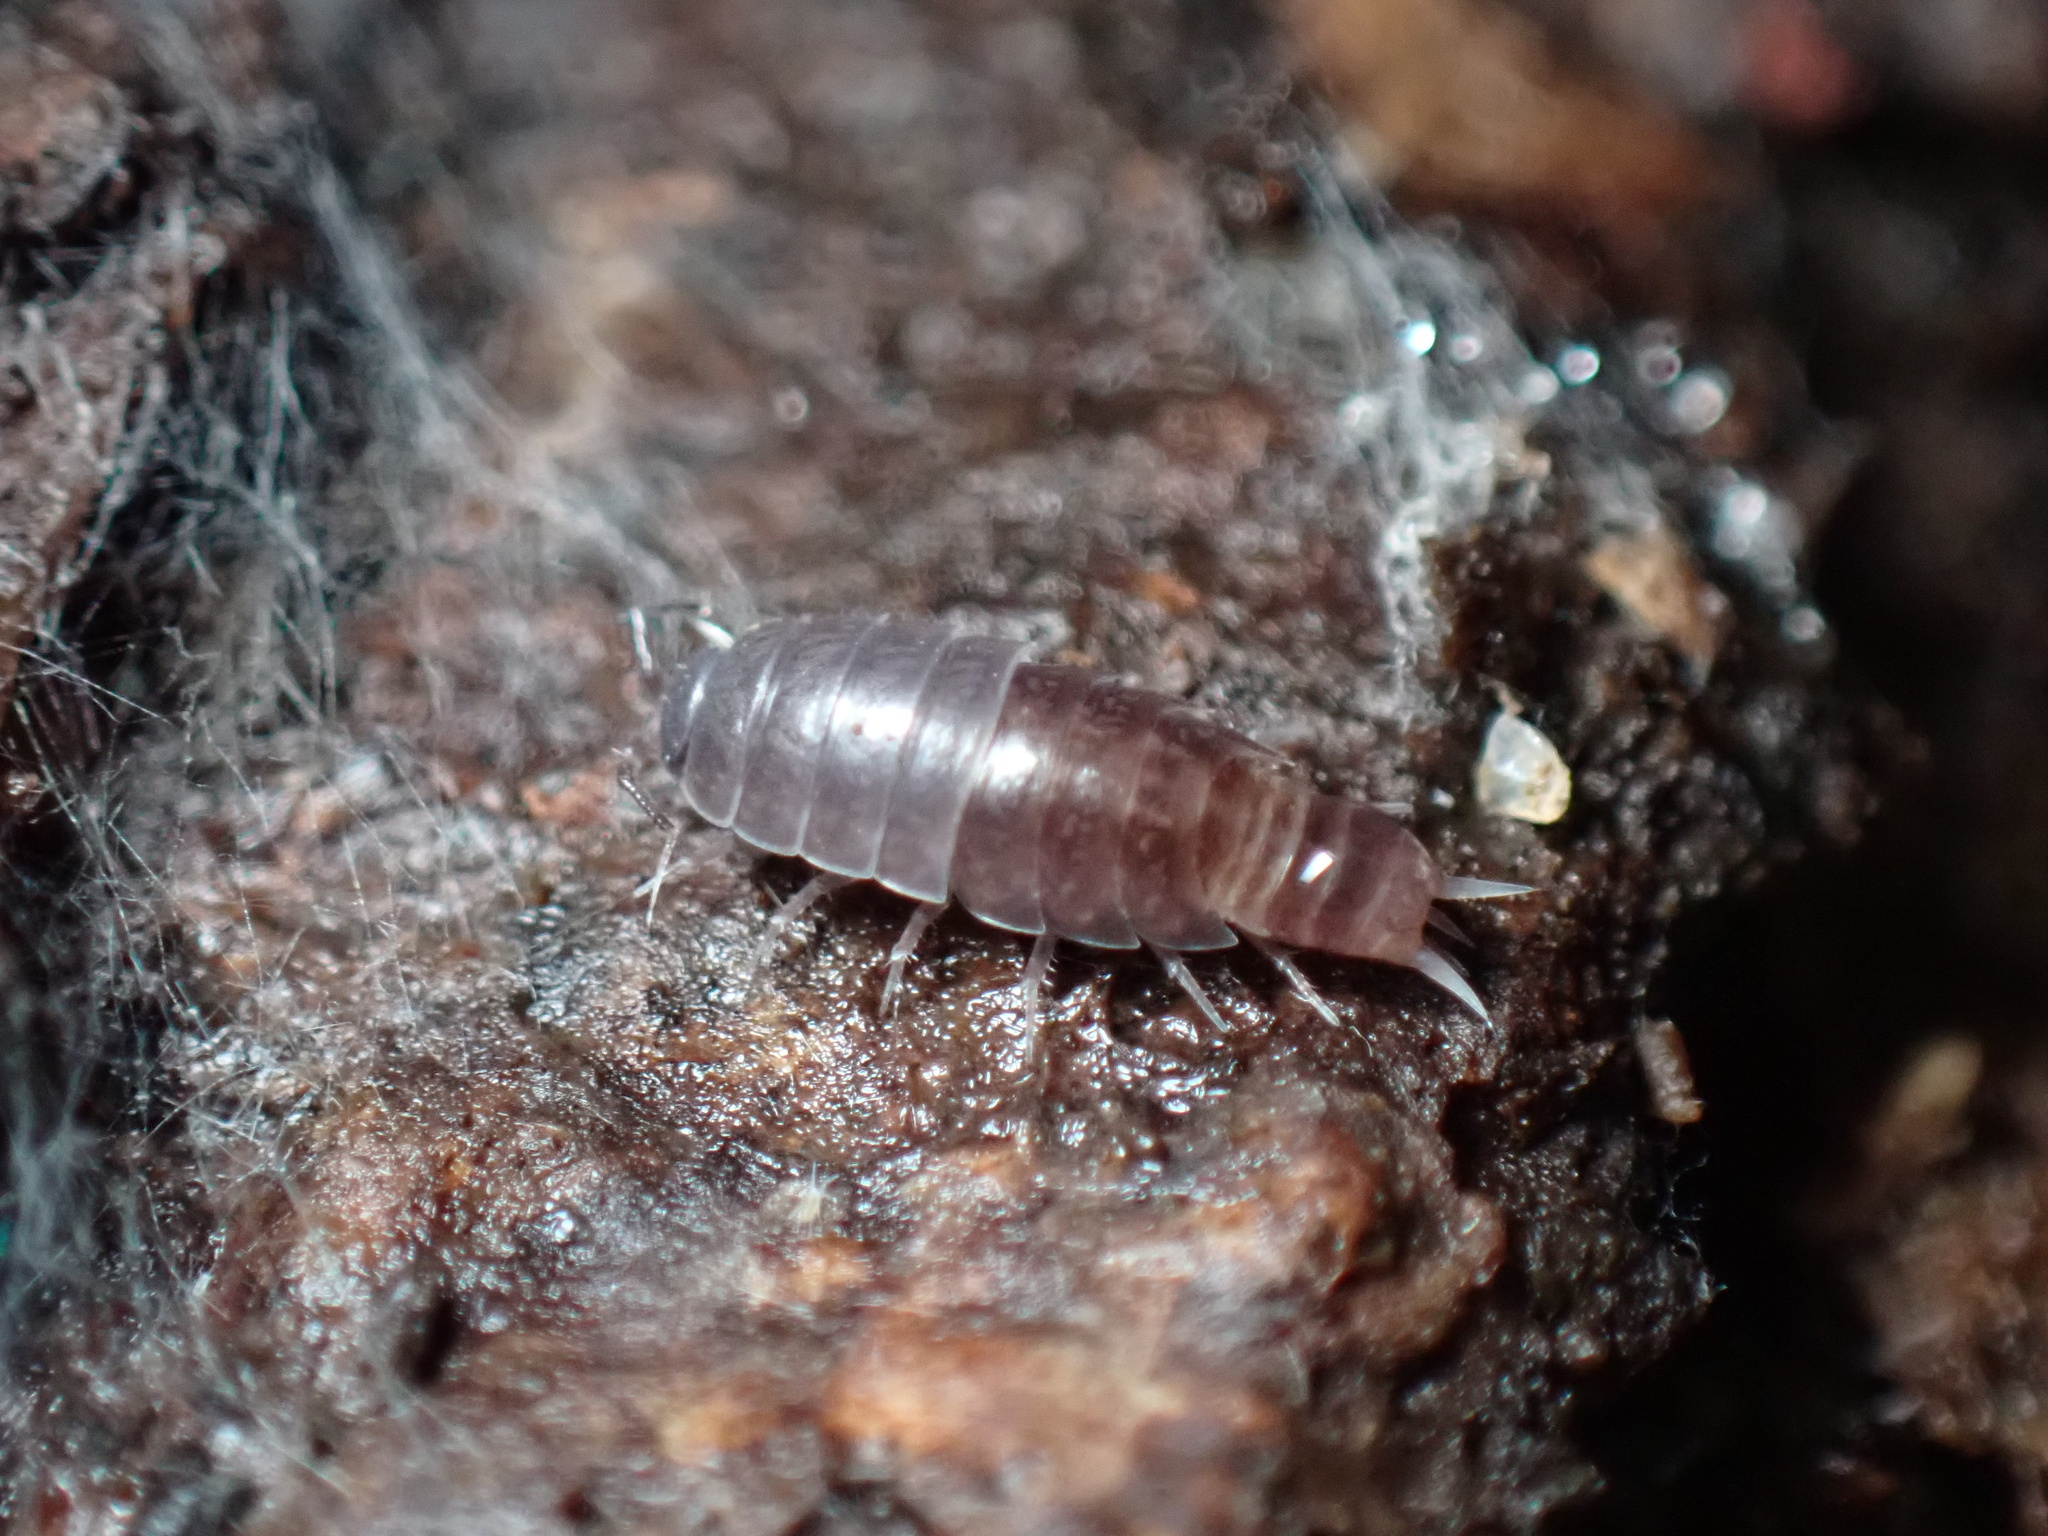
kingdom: Animalia
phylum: Arthropoda
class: Malacostraca
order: Isopoda
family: Trichoniscidae
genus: Hyloniscus
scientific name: Hyloniscus riparius
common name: Isopod
